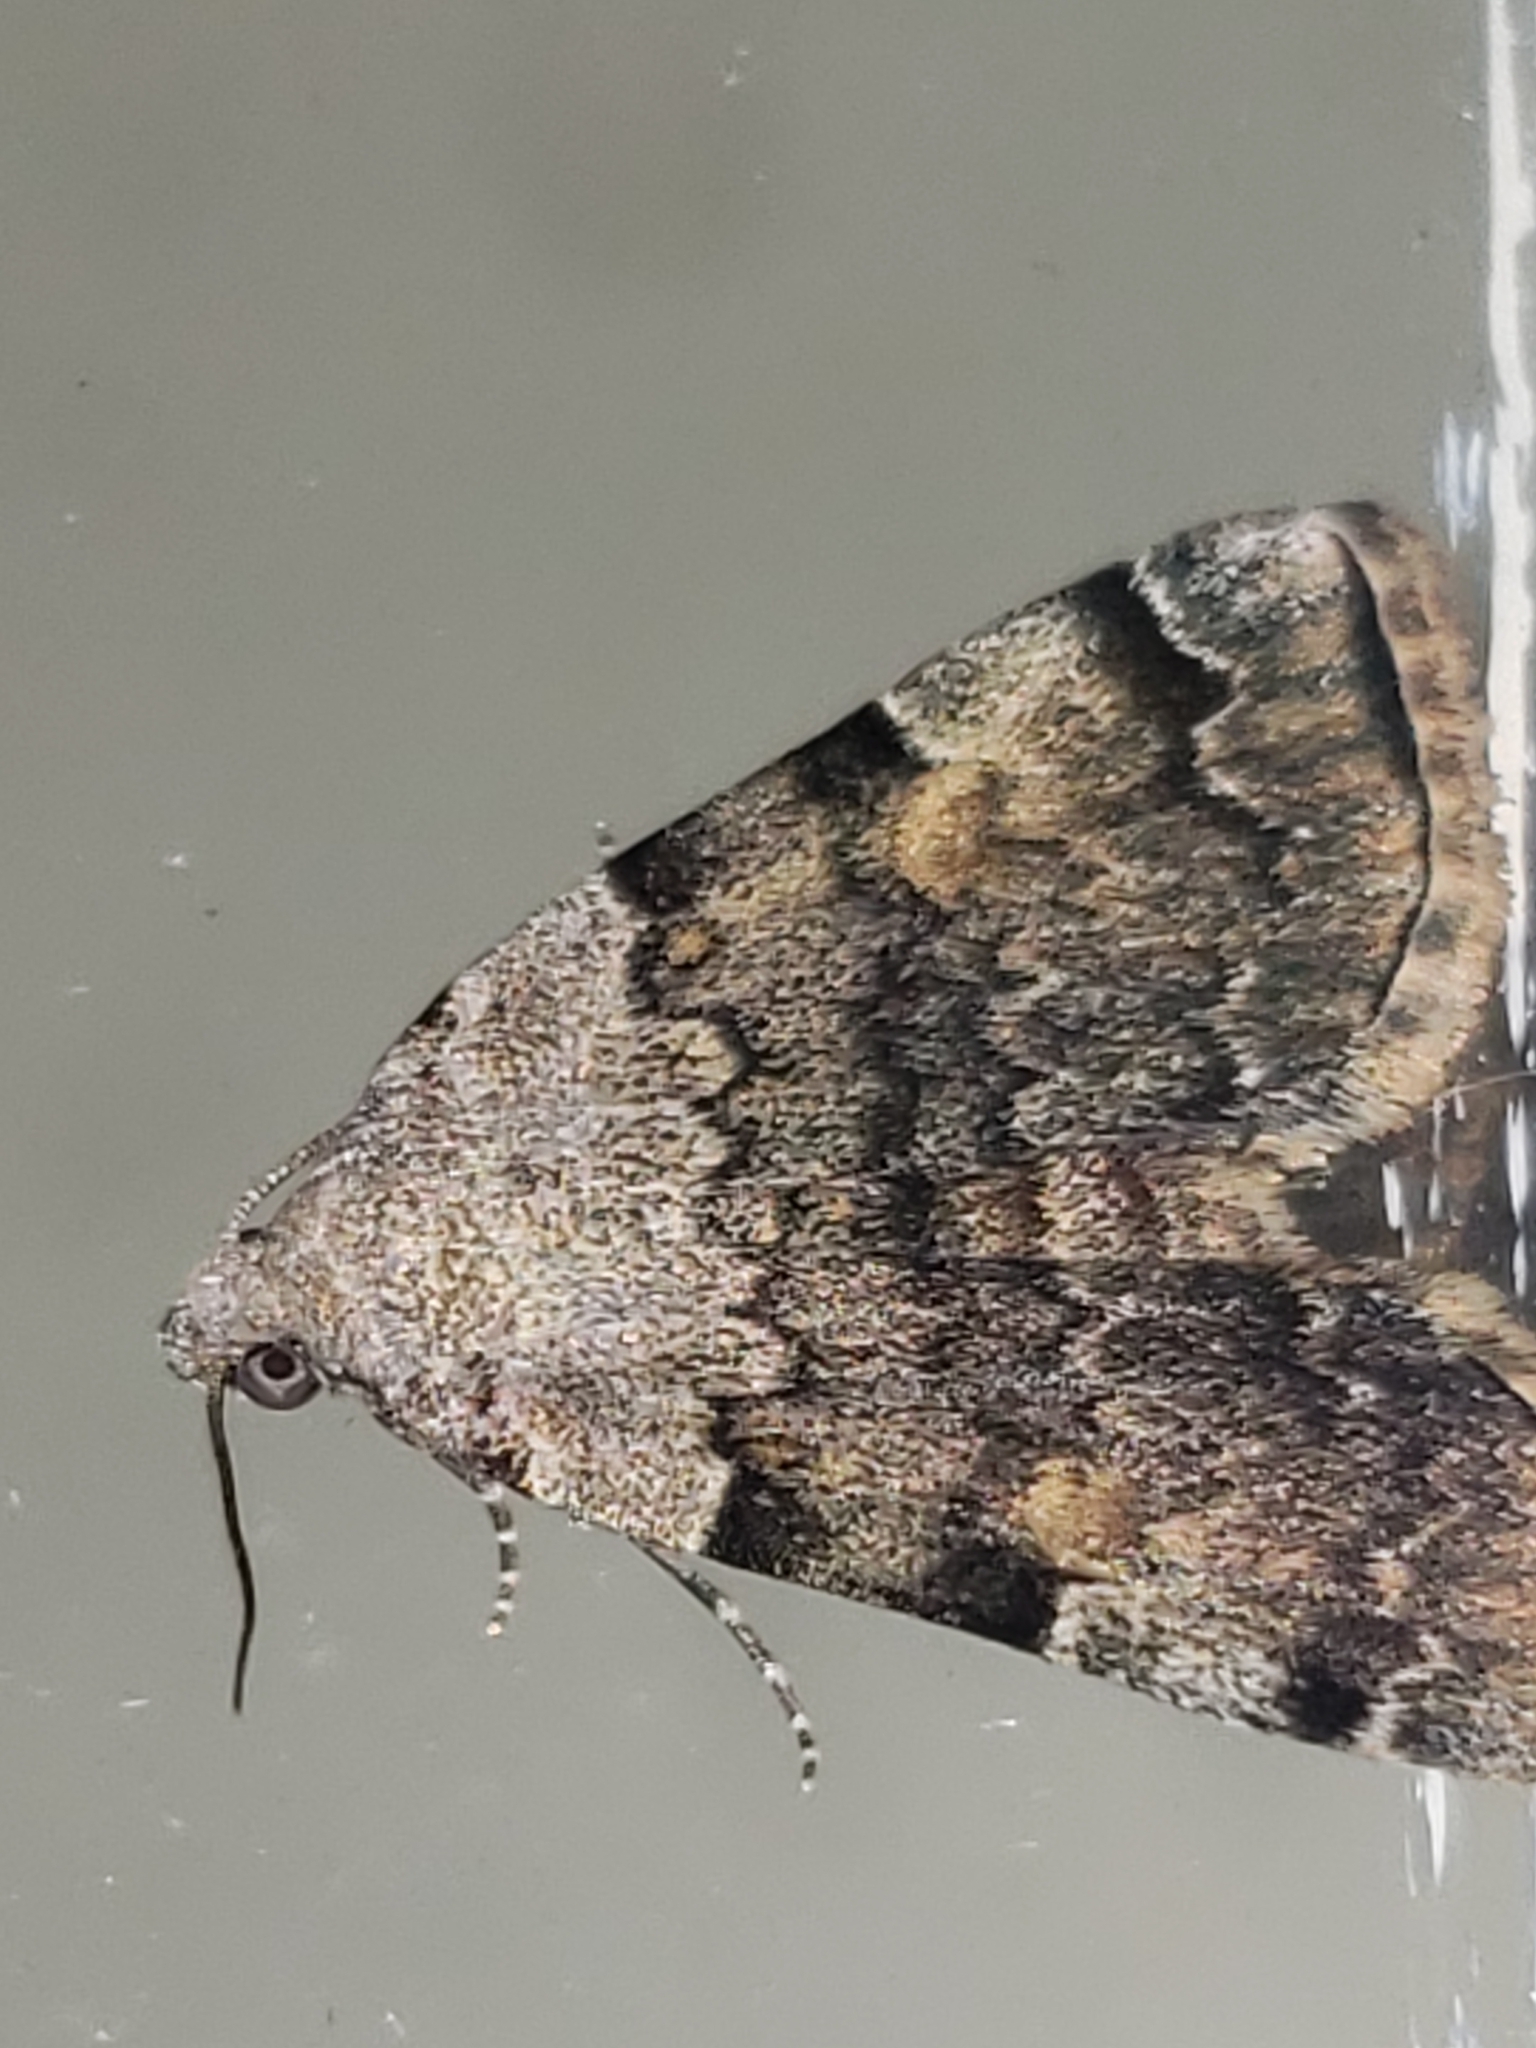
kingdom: Animalia
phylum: Arthropoda
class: Insecta
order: Lepidoptera
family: Erebidae
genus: Idia
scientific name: Idia americalis
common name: American idia moth
